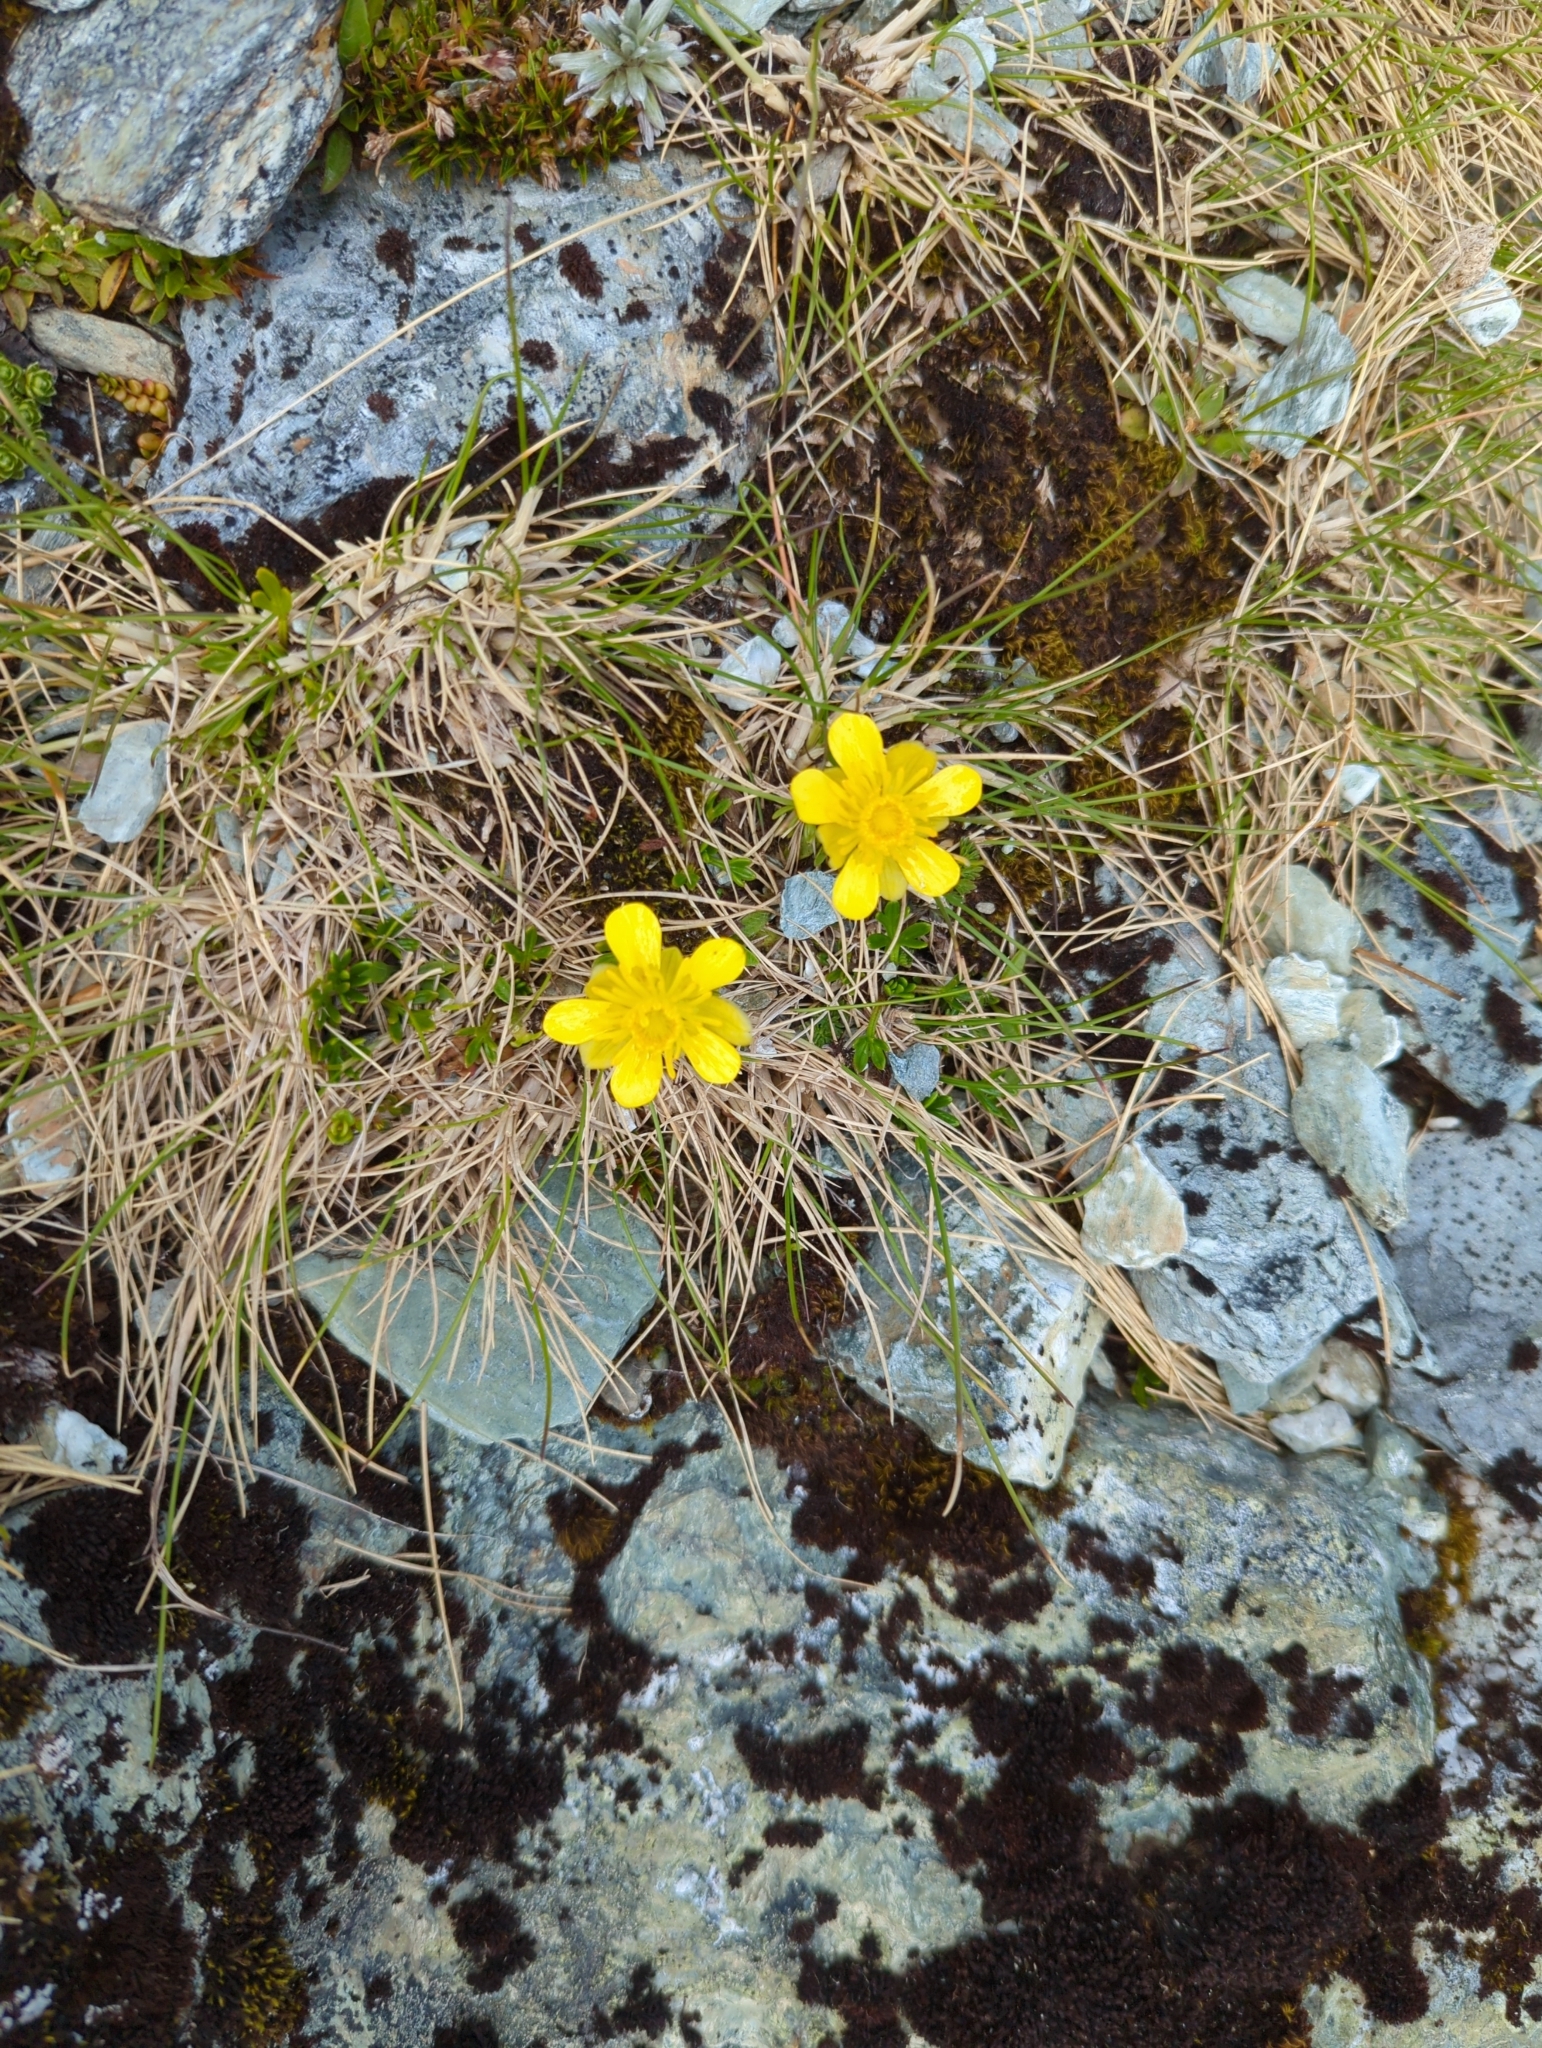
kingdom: Plantae
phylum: Tracheophyta
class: Magnoliopsida
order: Ranunculales
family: Ranunculaceae
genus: Ranunculus
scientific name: Ranunculus sericophyllus
